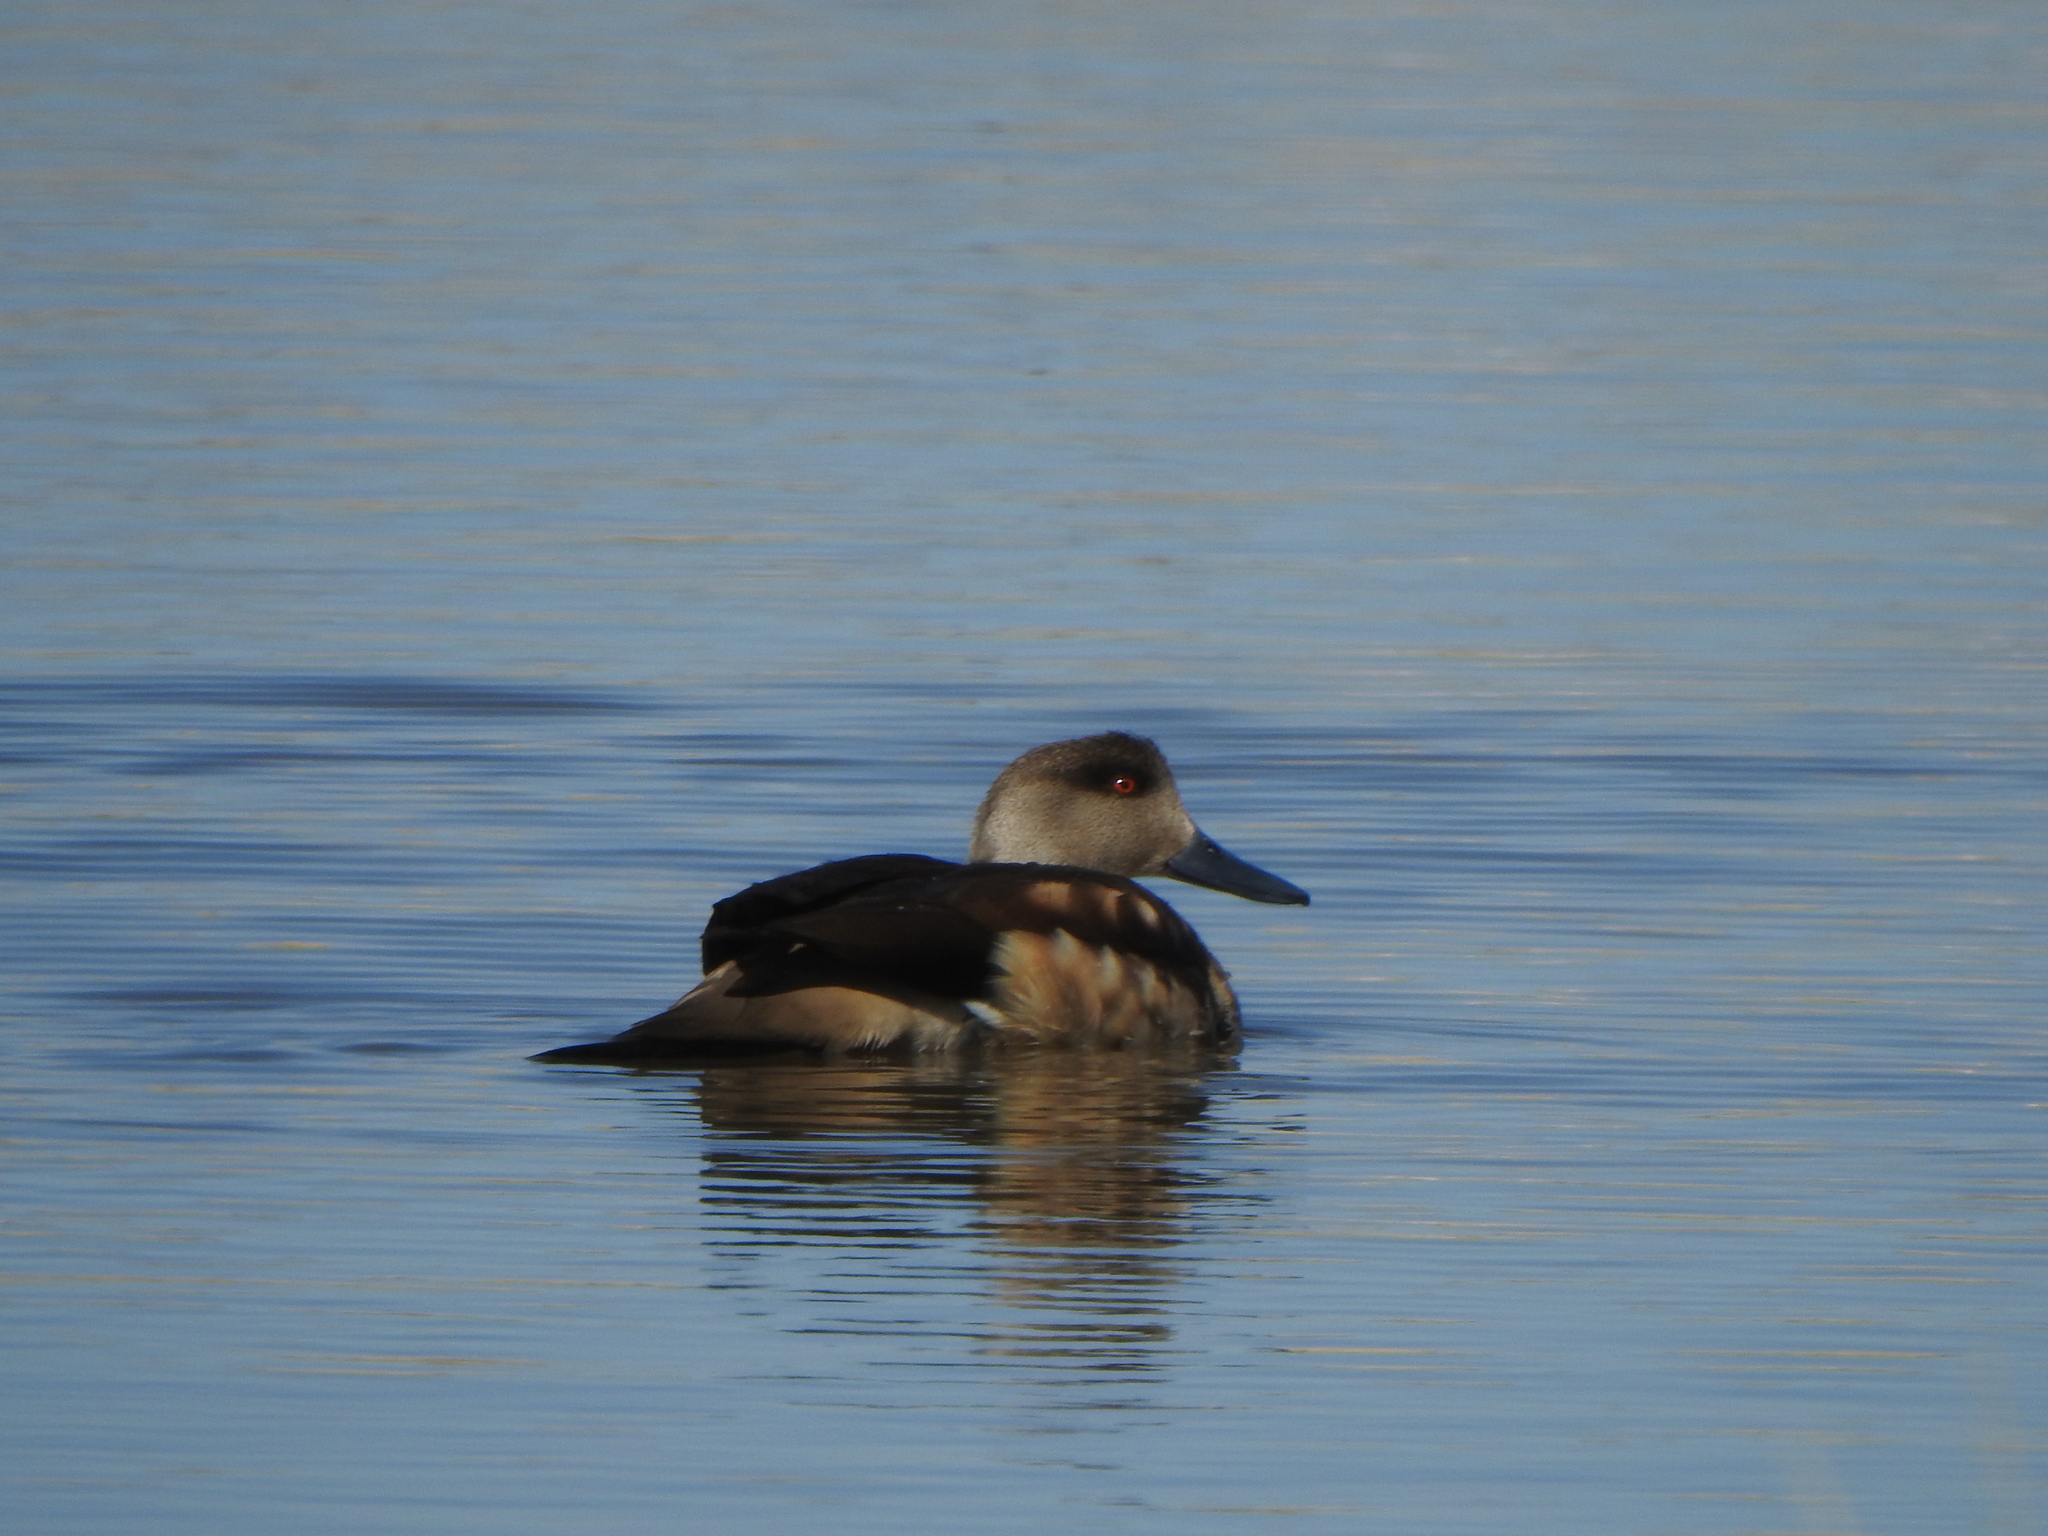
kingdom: Animalia
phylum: Chordata
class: Aves
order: Anseriformes
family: Anatidae
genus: Lophonetta
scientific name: Lophonetta specularioides
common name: Crested duck
